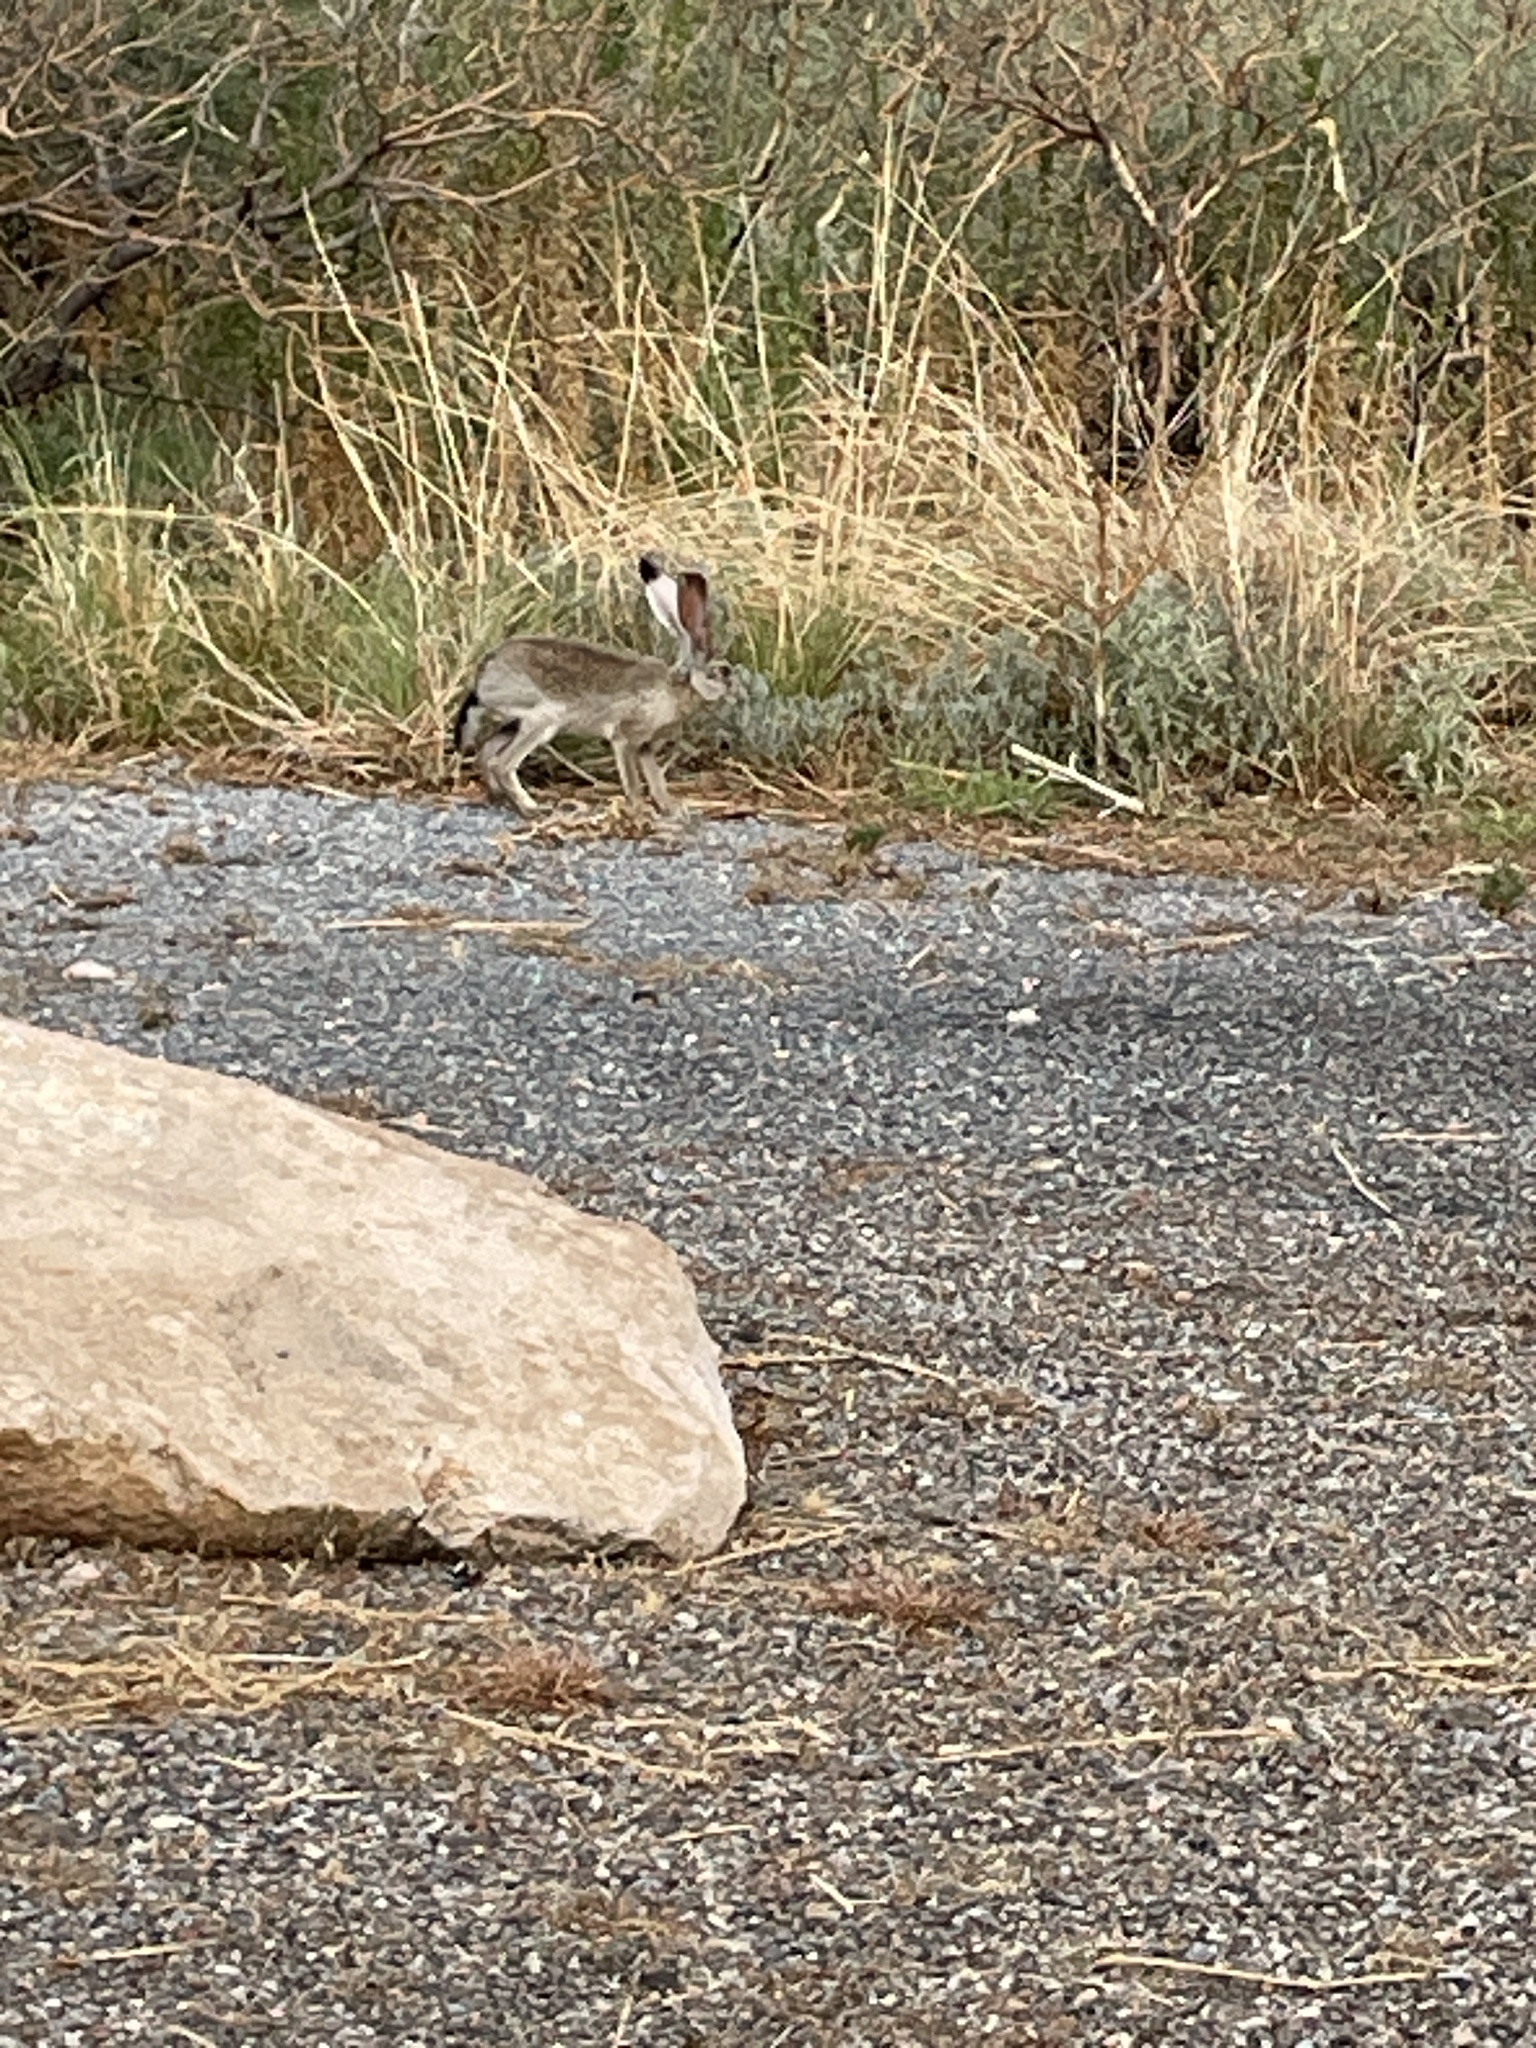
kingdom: Animalia
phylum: Chordata
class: Mammalia
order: Lagomorpha
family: Leporidae
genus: Lepus
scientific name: Lepus californicus
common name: Black-tailed jackrabbit
